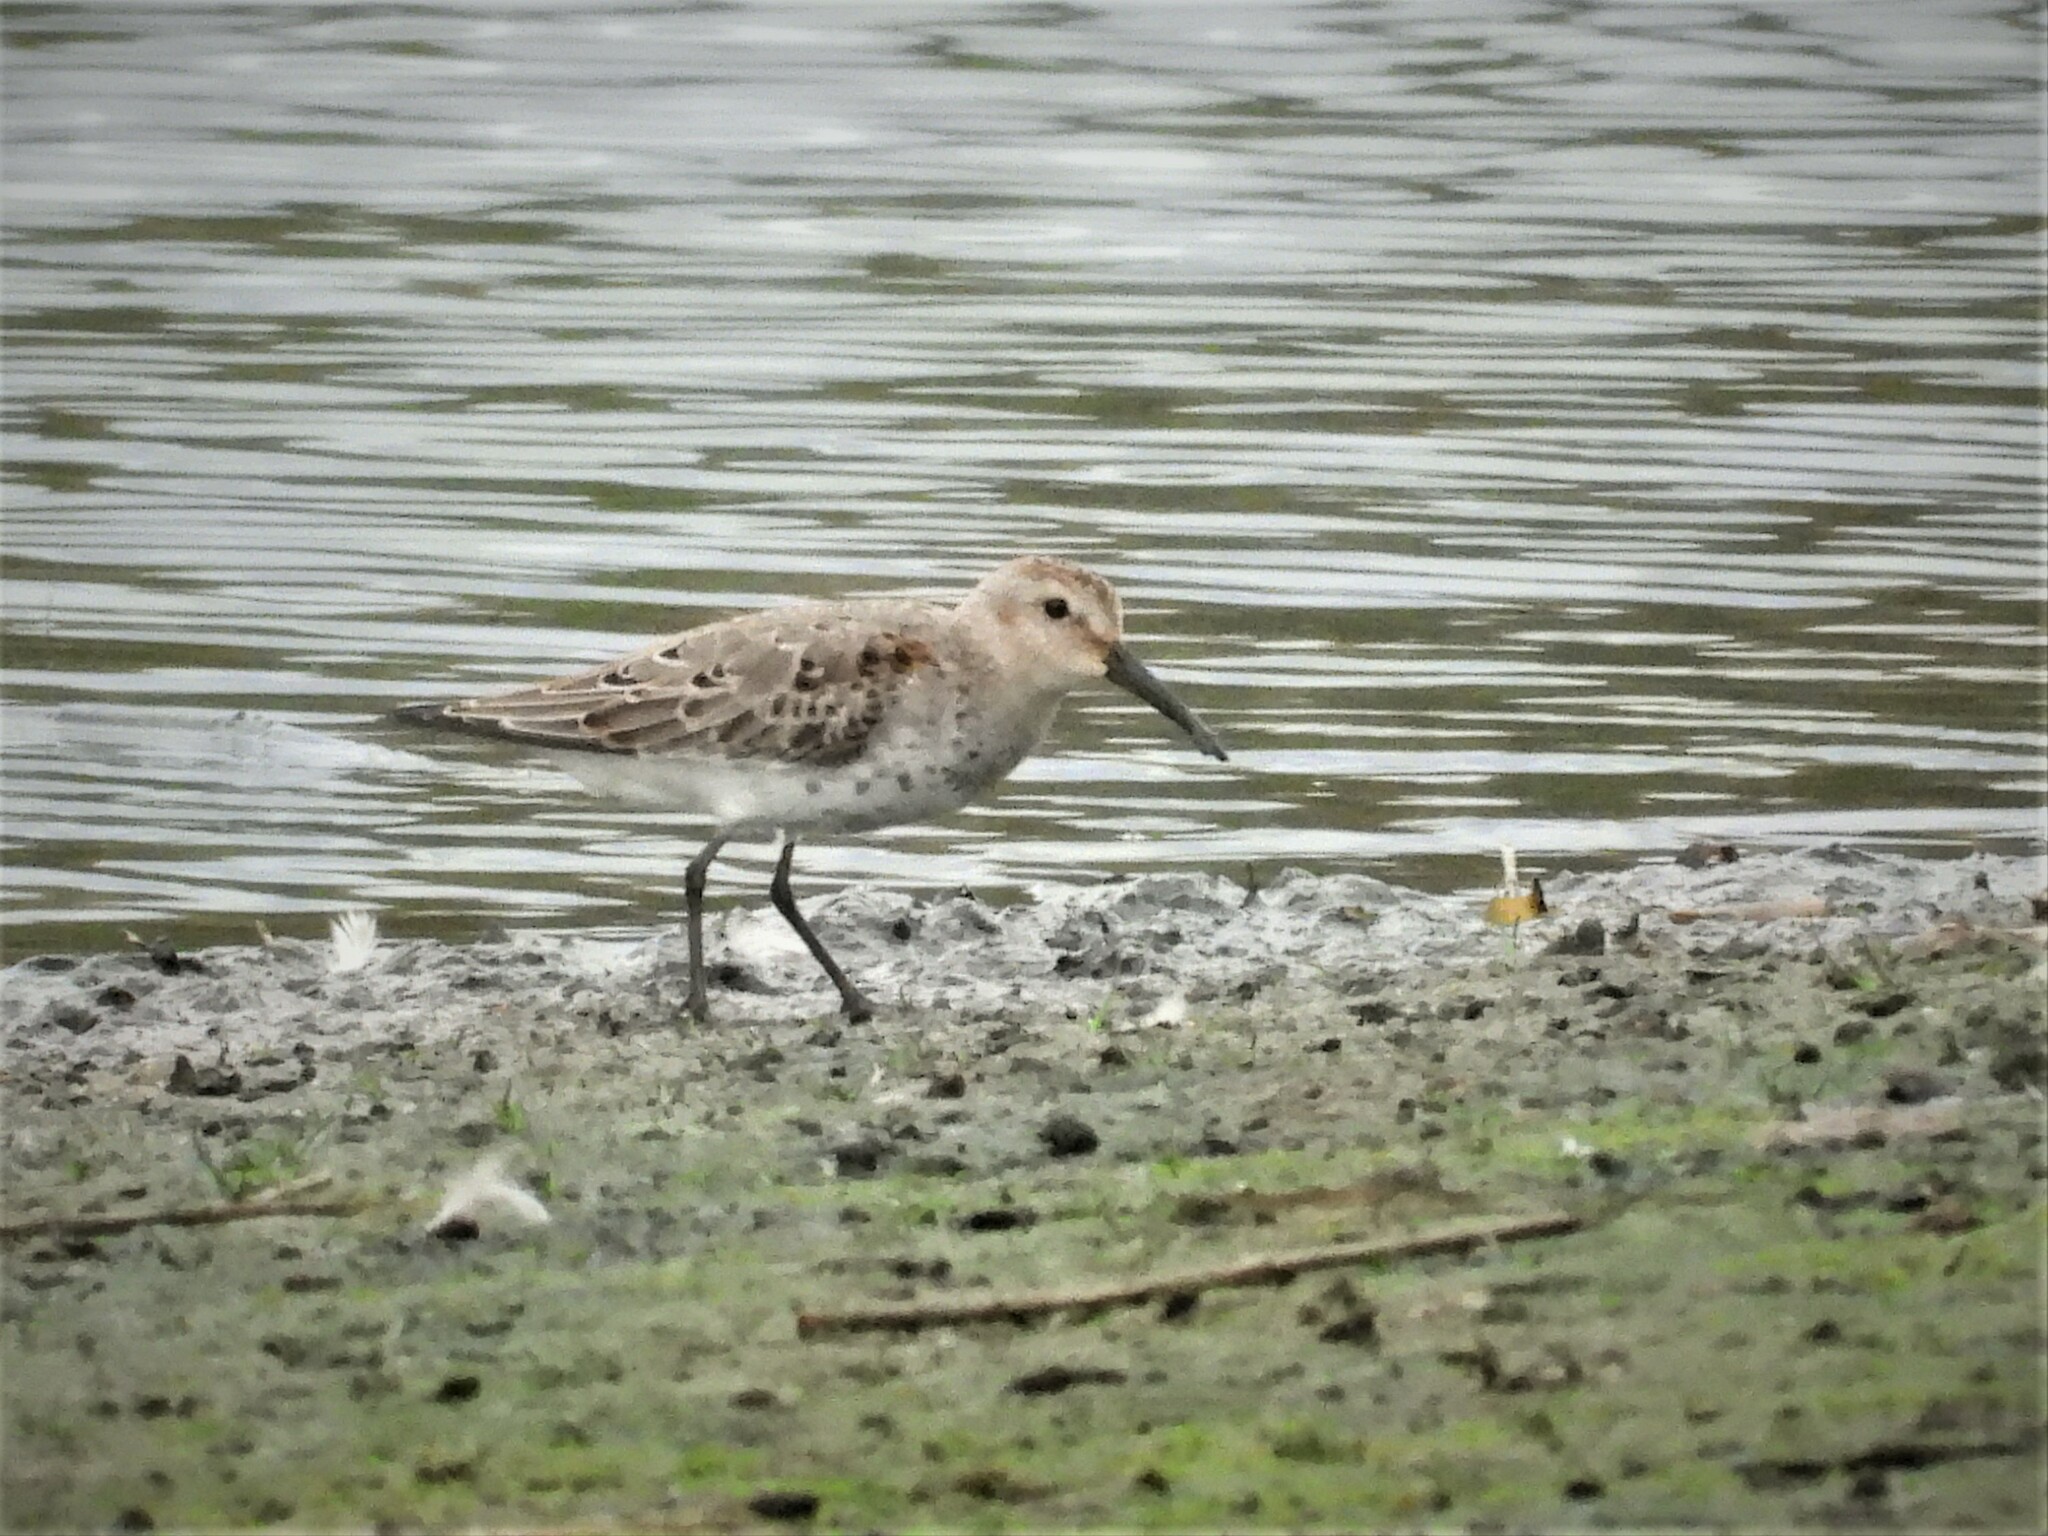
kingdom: Animalia
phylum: Chordata
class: Aves
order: Charadriiformes
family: Scolopacidae
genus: Calidris
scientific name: Calidris alpina
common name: Dunlin
